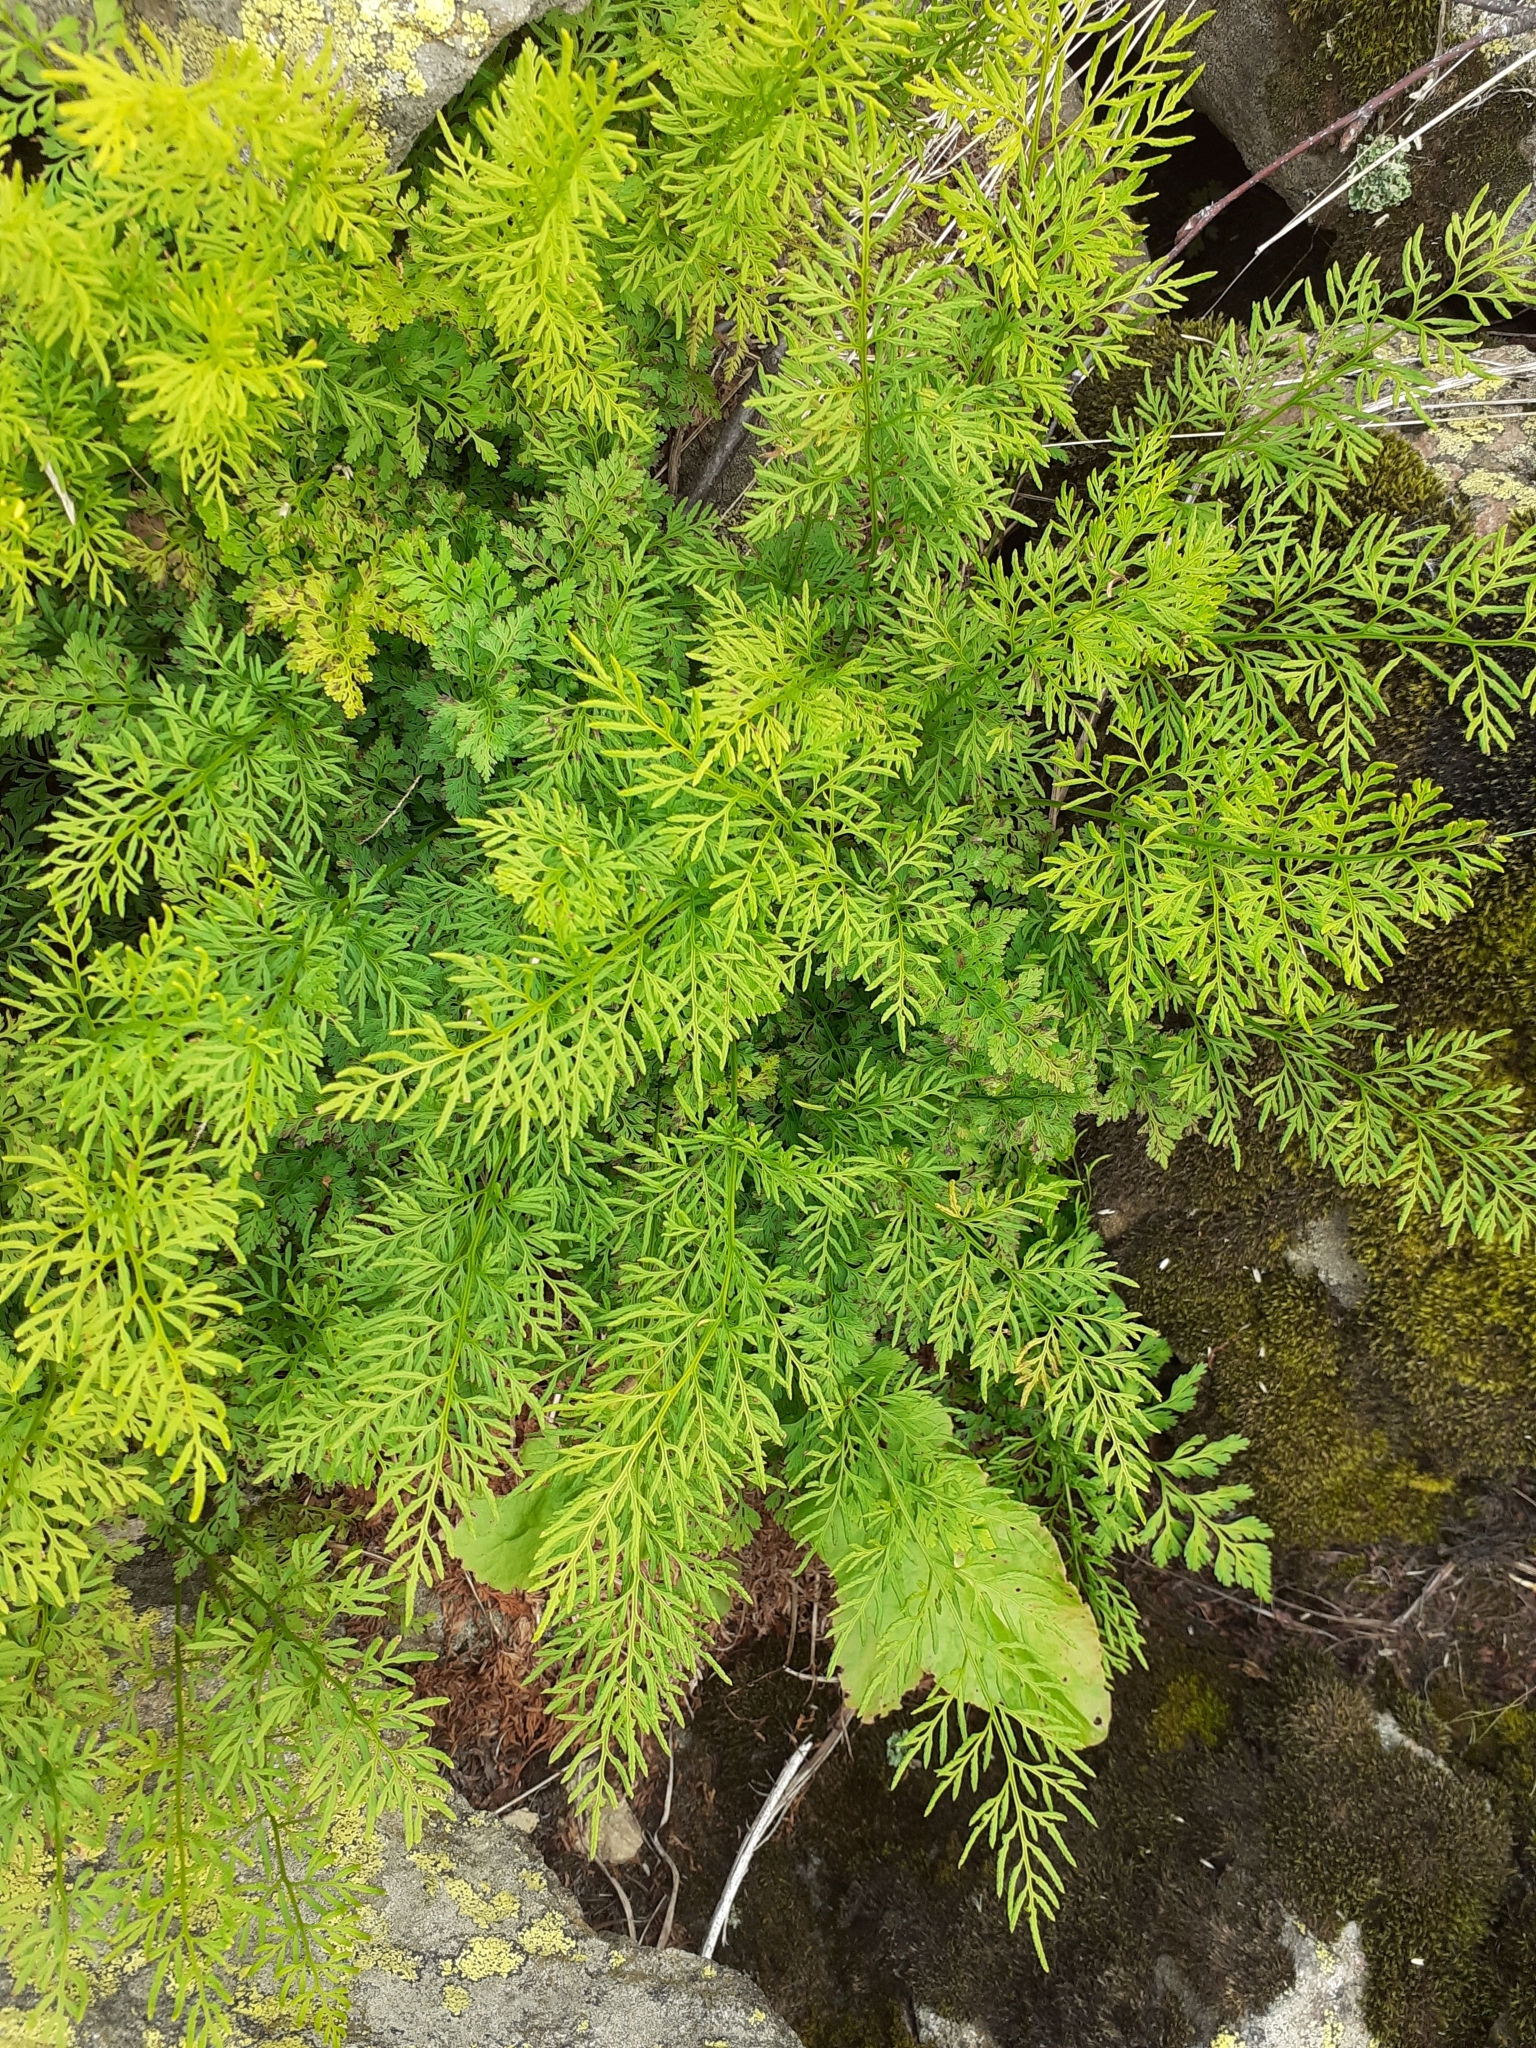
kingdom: Plantae
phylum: Tracheophyta
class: Polypodiopsida
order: Polypodiales
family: Pteridaceae
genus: Cryptogramma
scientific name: Cryptogramma crispa
